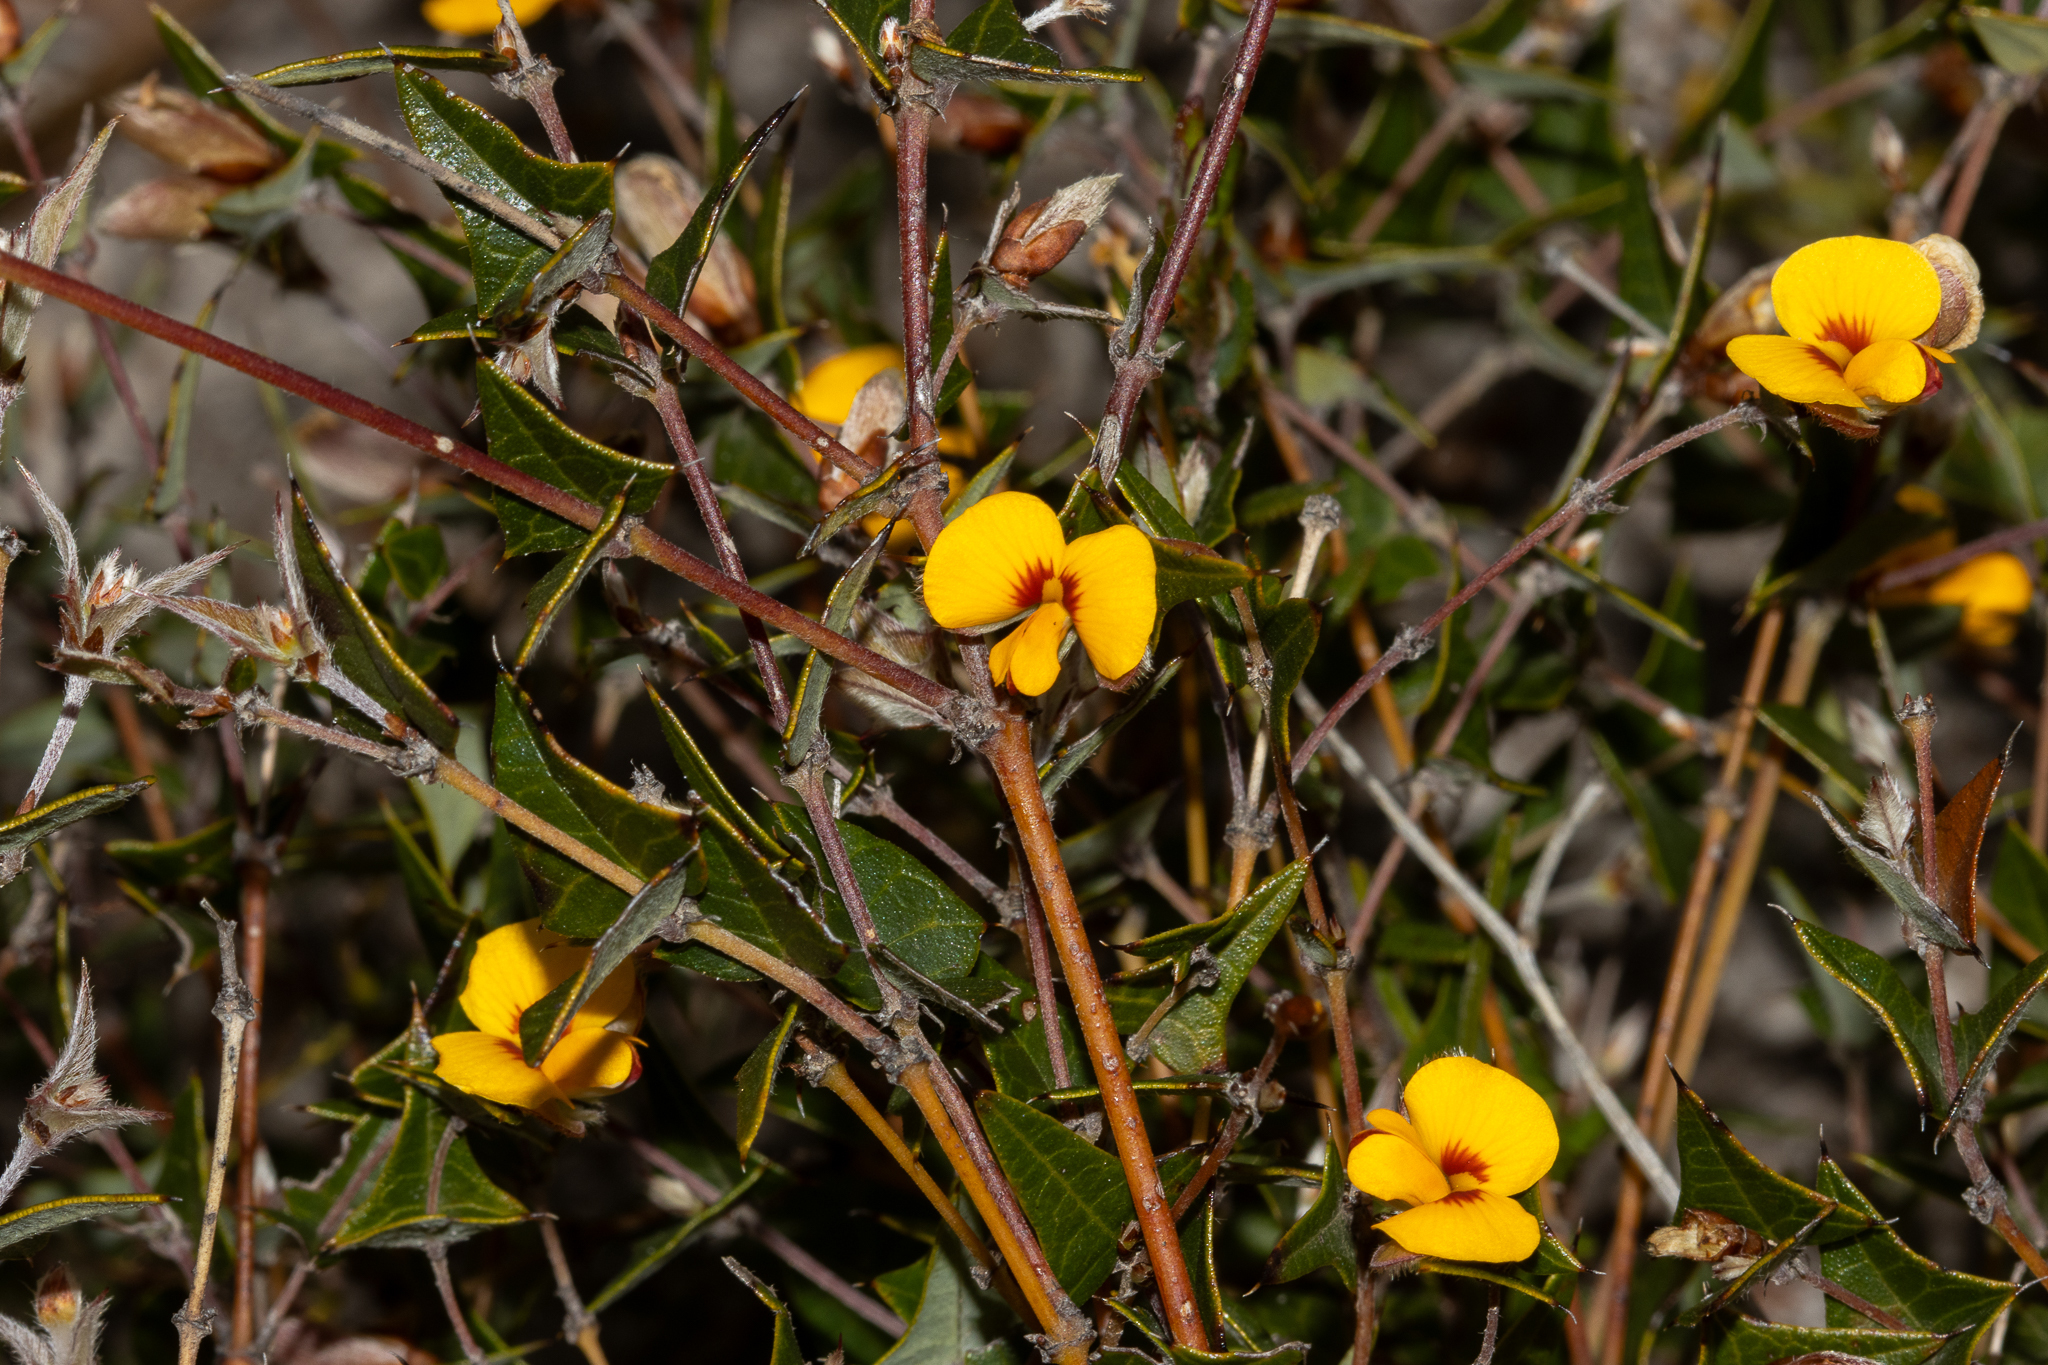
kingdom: Plantae
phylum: Tracheophyta
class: Magnoliopsida
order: Fabales
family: Fabaceae
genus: Platylobium
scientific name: Platylobium obtusangulum
